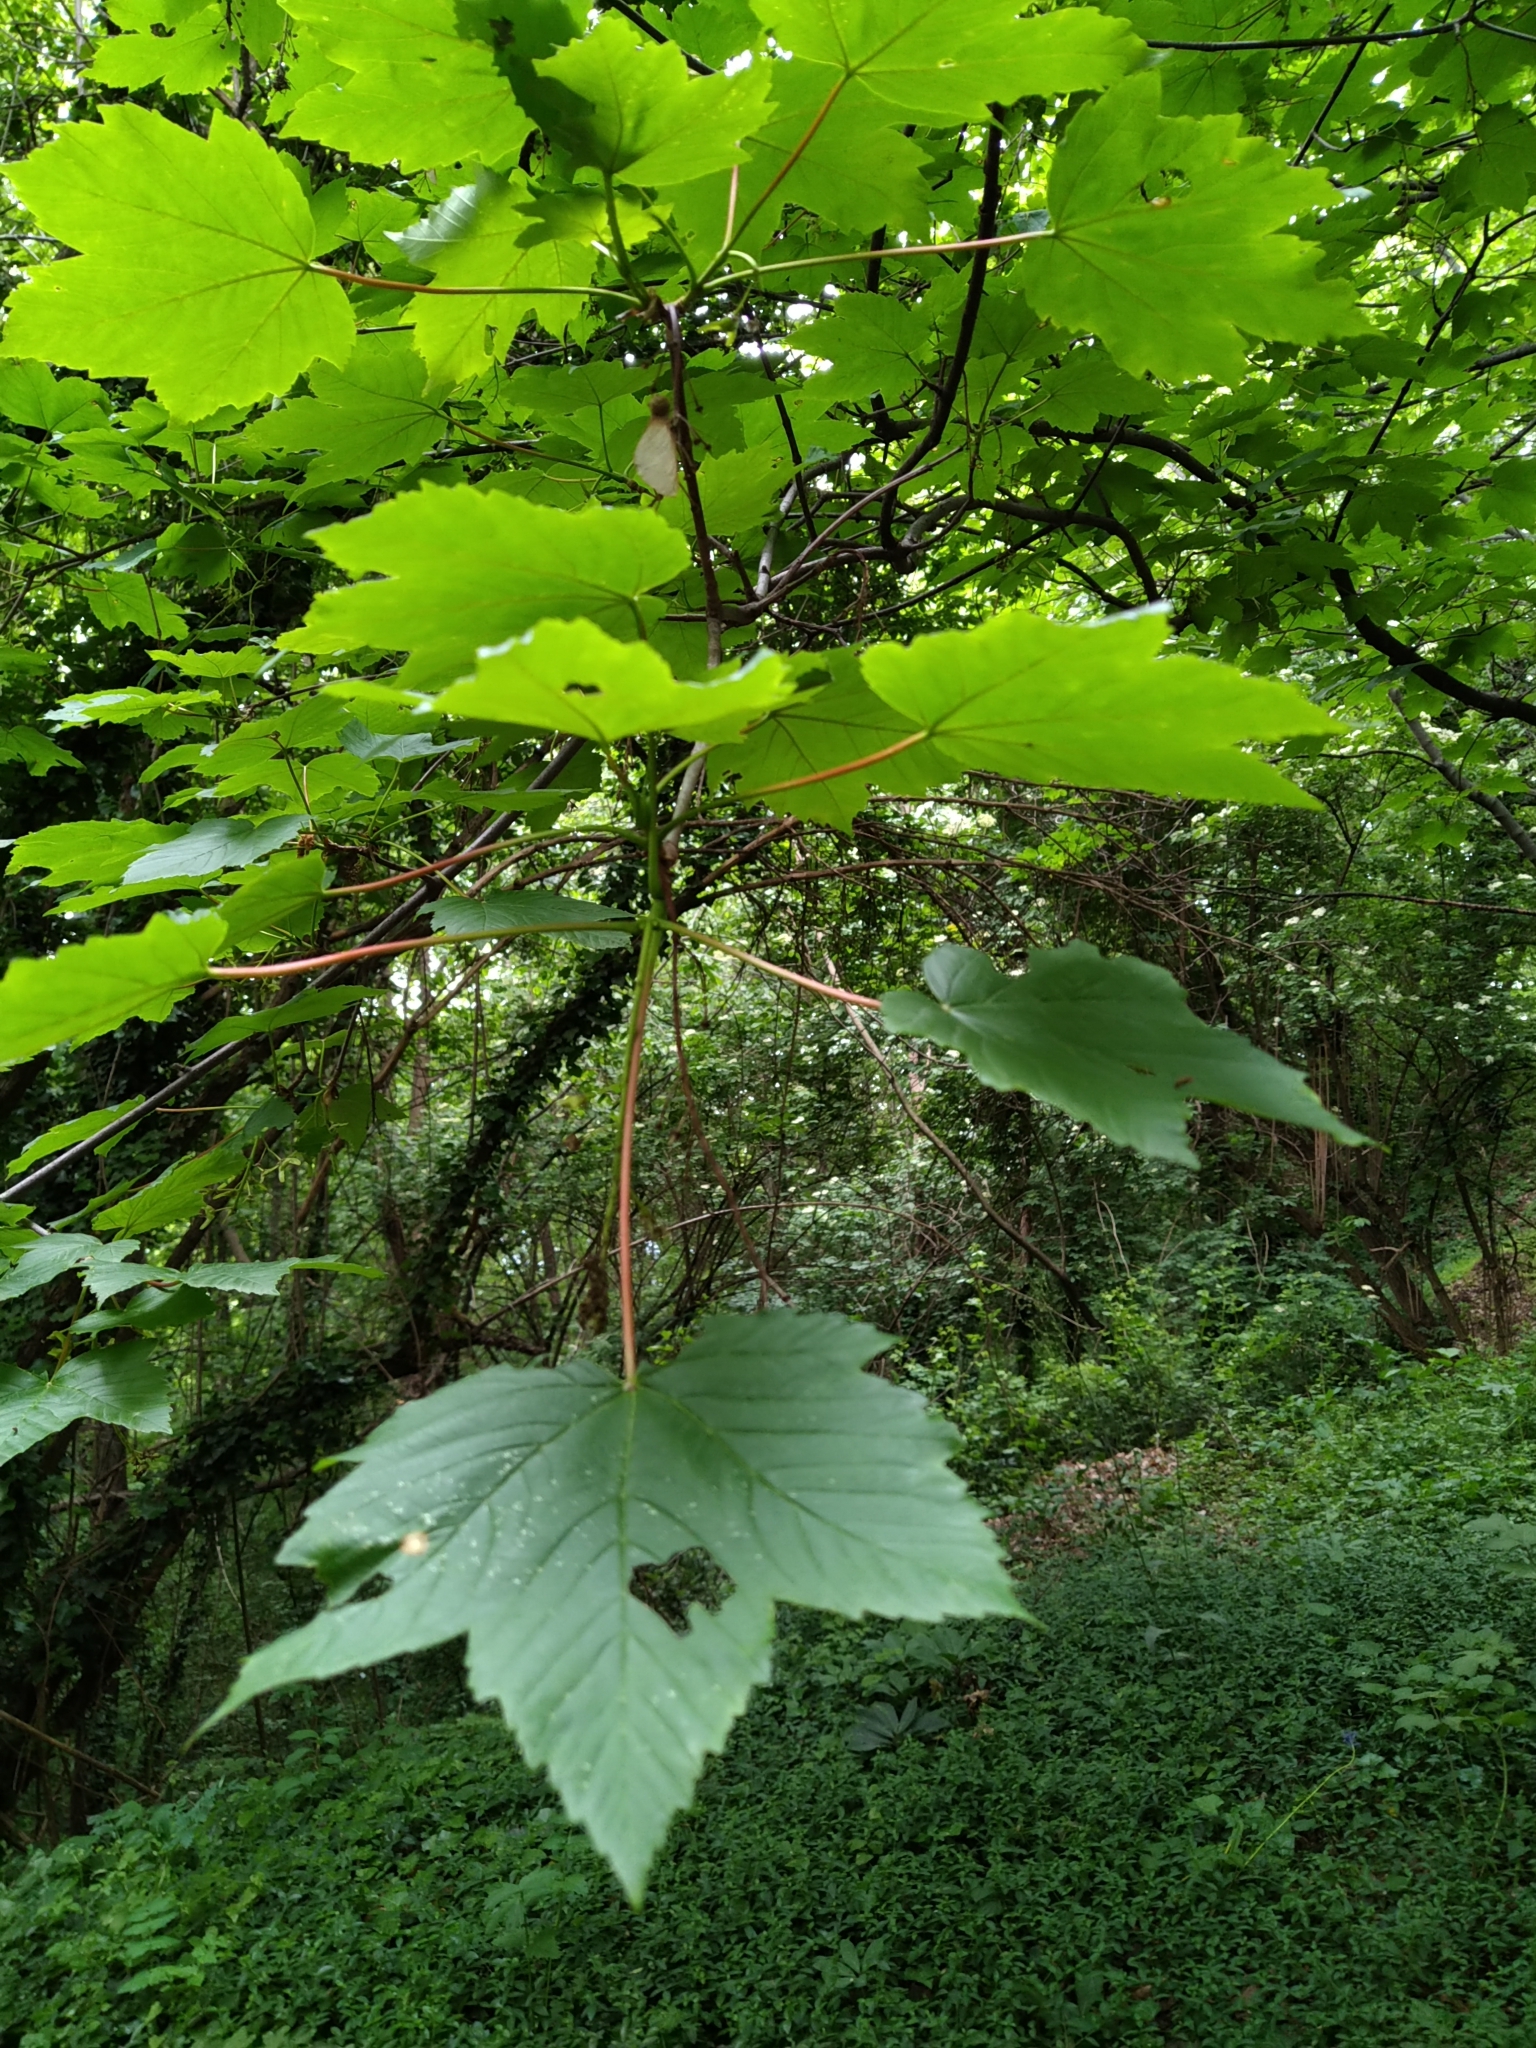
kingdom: Plantae
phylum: Tracheophyta
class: Magnoliopsida
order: Sapindales
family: Sapindaceae
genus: Acer
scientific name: Acer pseudoplatanus
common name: Sycamore
